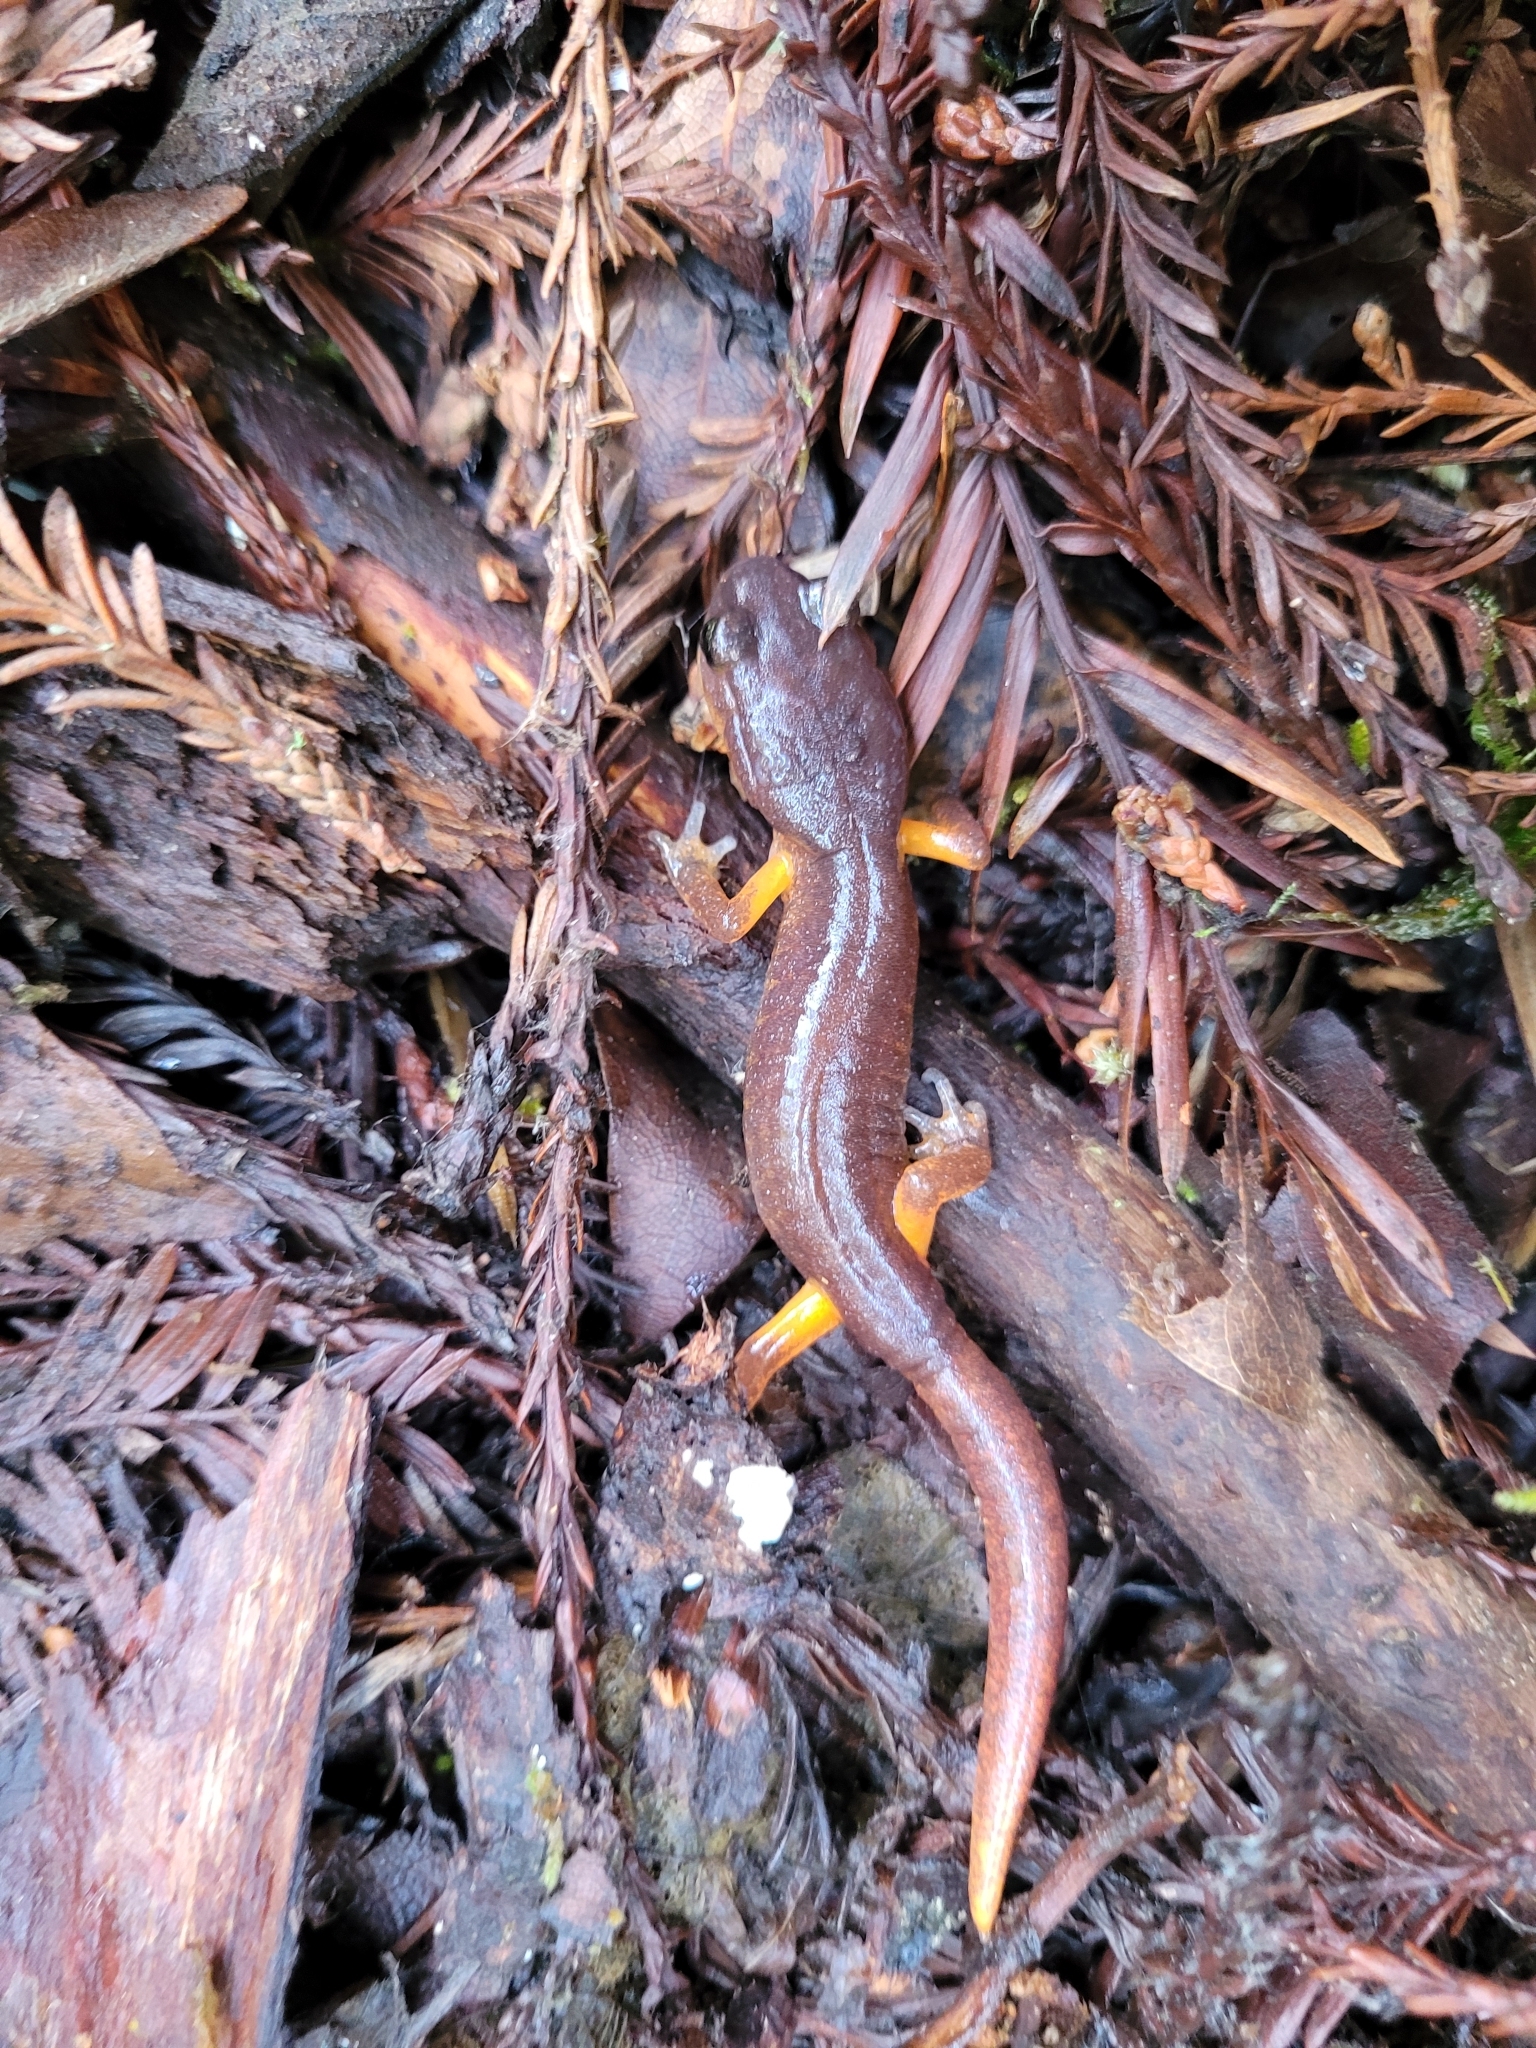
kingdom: Animalia
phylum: Chordata
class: Amphibia
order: Caudata
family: Plethodontidae
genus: Ensatina
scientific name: Ensatina eschscholtzii
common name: Ensatina
